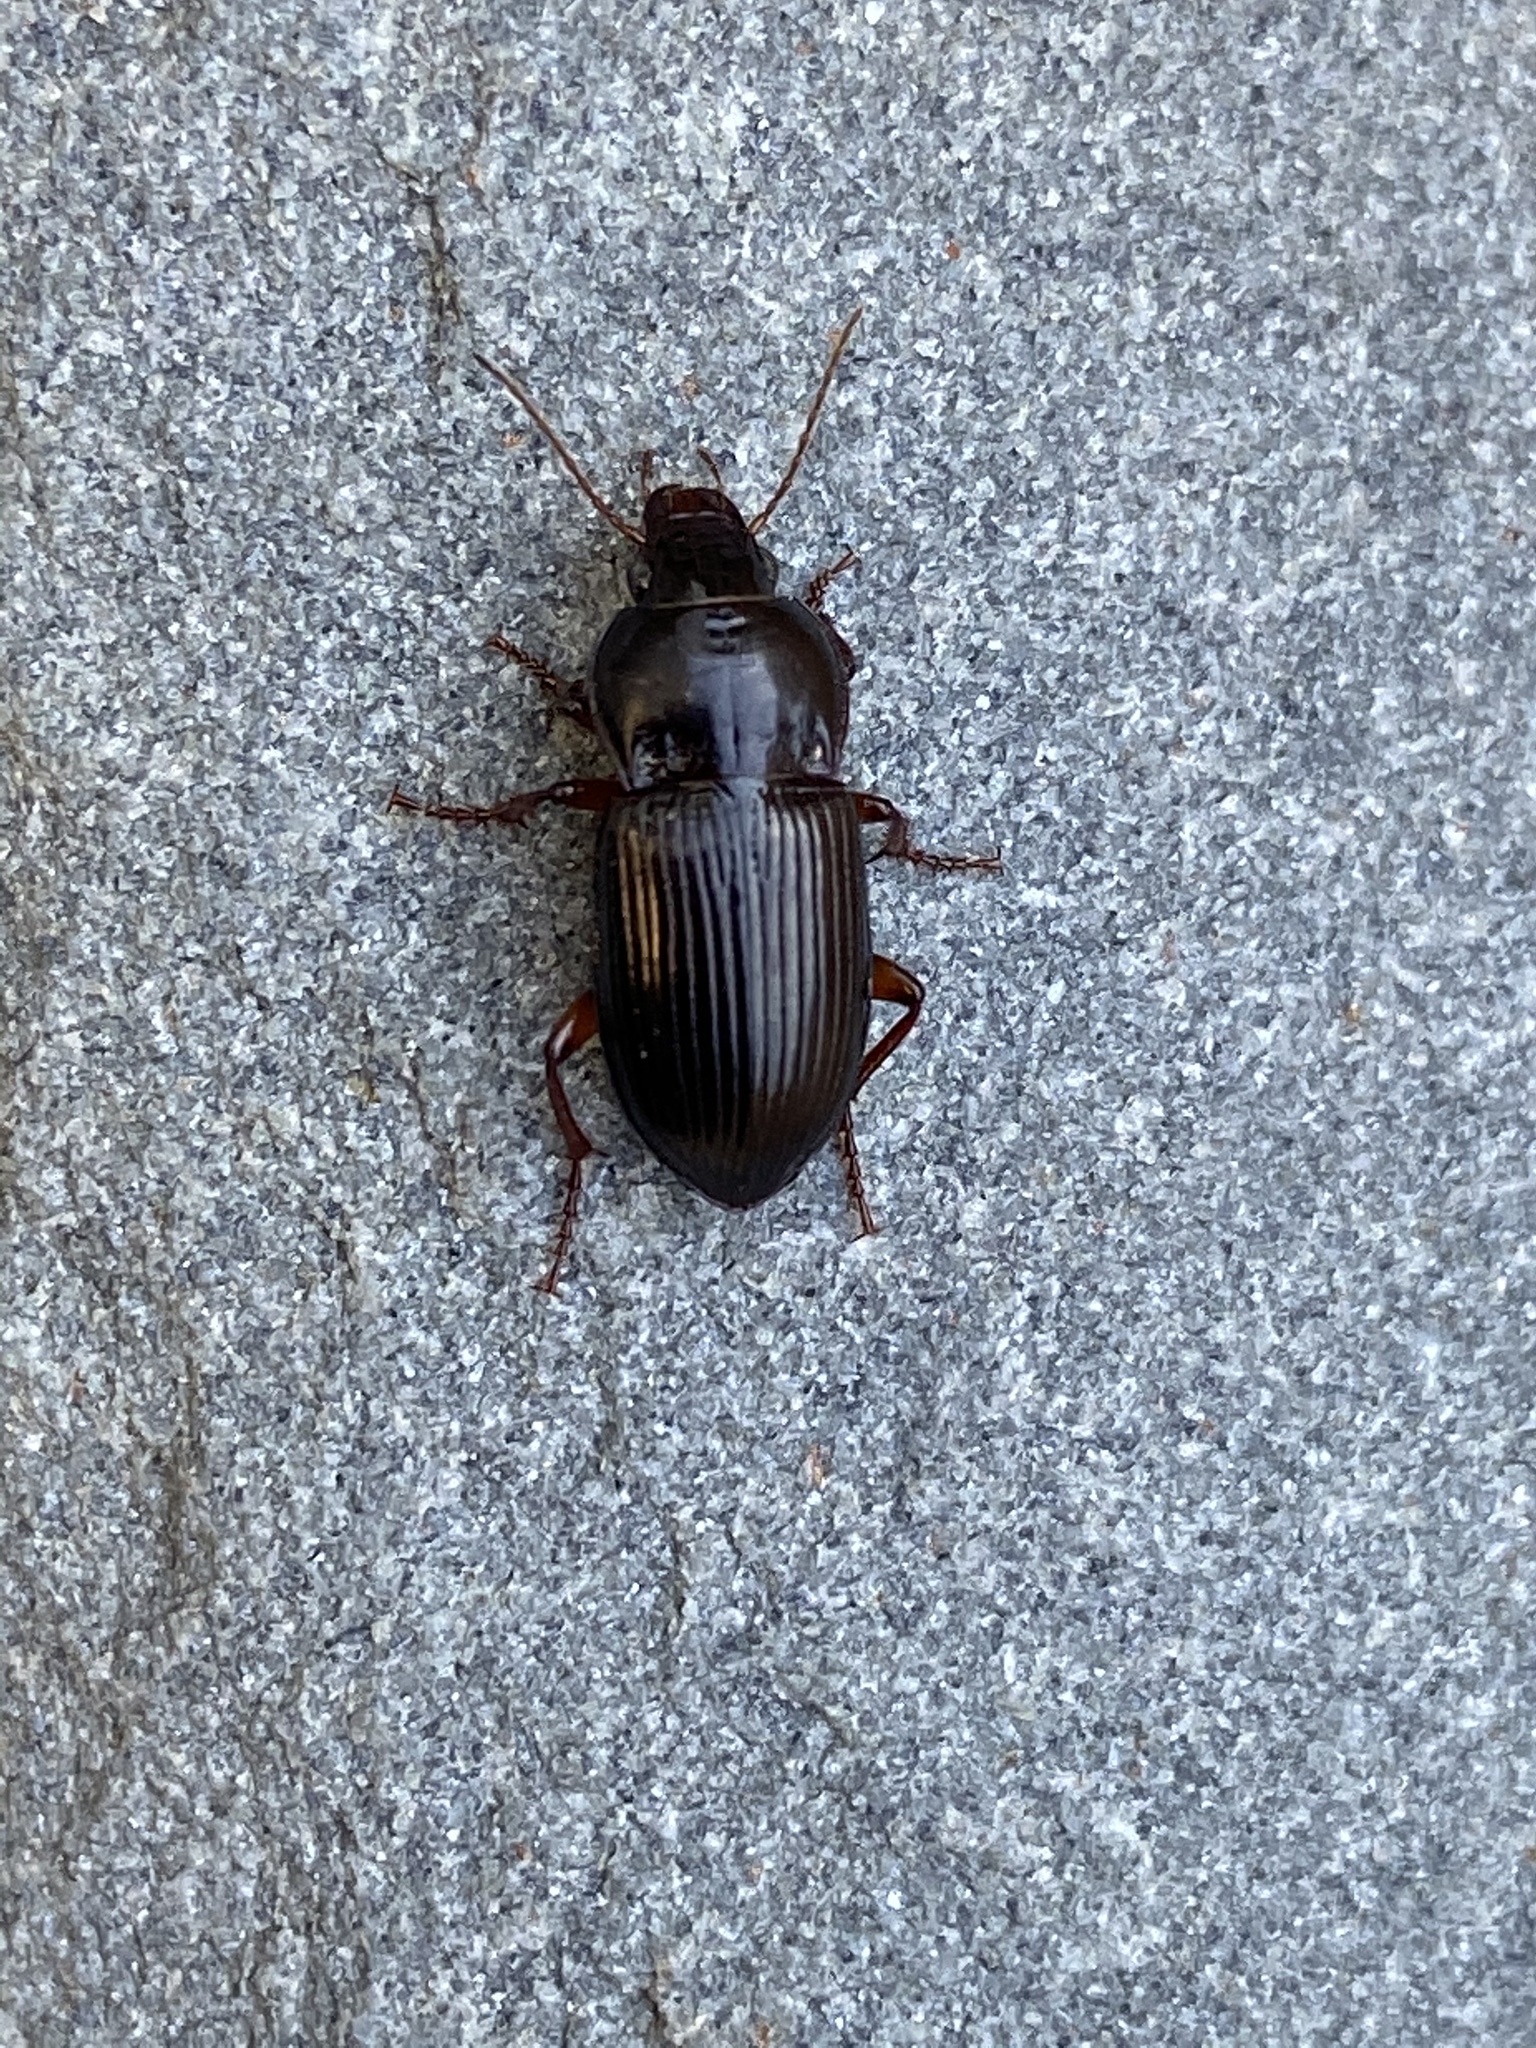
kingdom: Animalia
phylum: Arthropoda
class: Insecta
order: Coleoptera
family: Carabidae
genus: Amara
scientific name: Amara pennsylvanica
